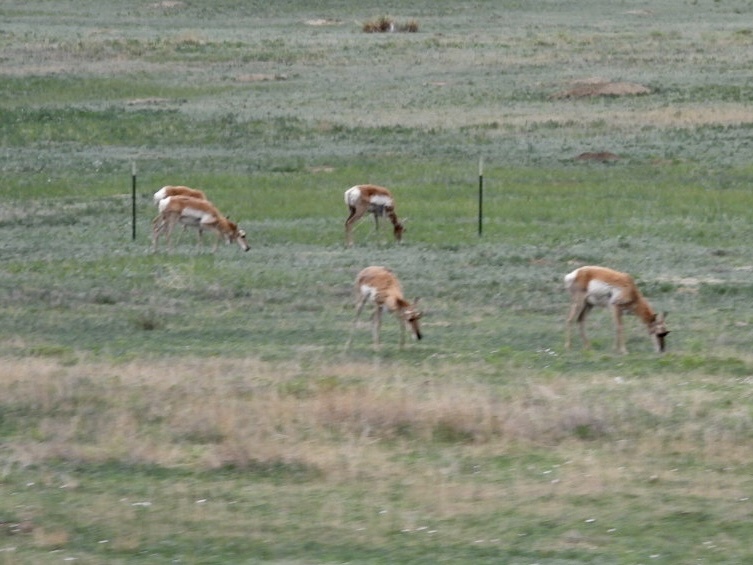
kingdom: Animalia
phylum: Chordata
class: Mammalia
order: Artiodactyla
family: Antilocapridae
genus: Antilocapra
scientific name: Antilocapra americana
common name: Pronghorn
